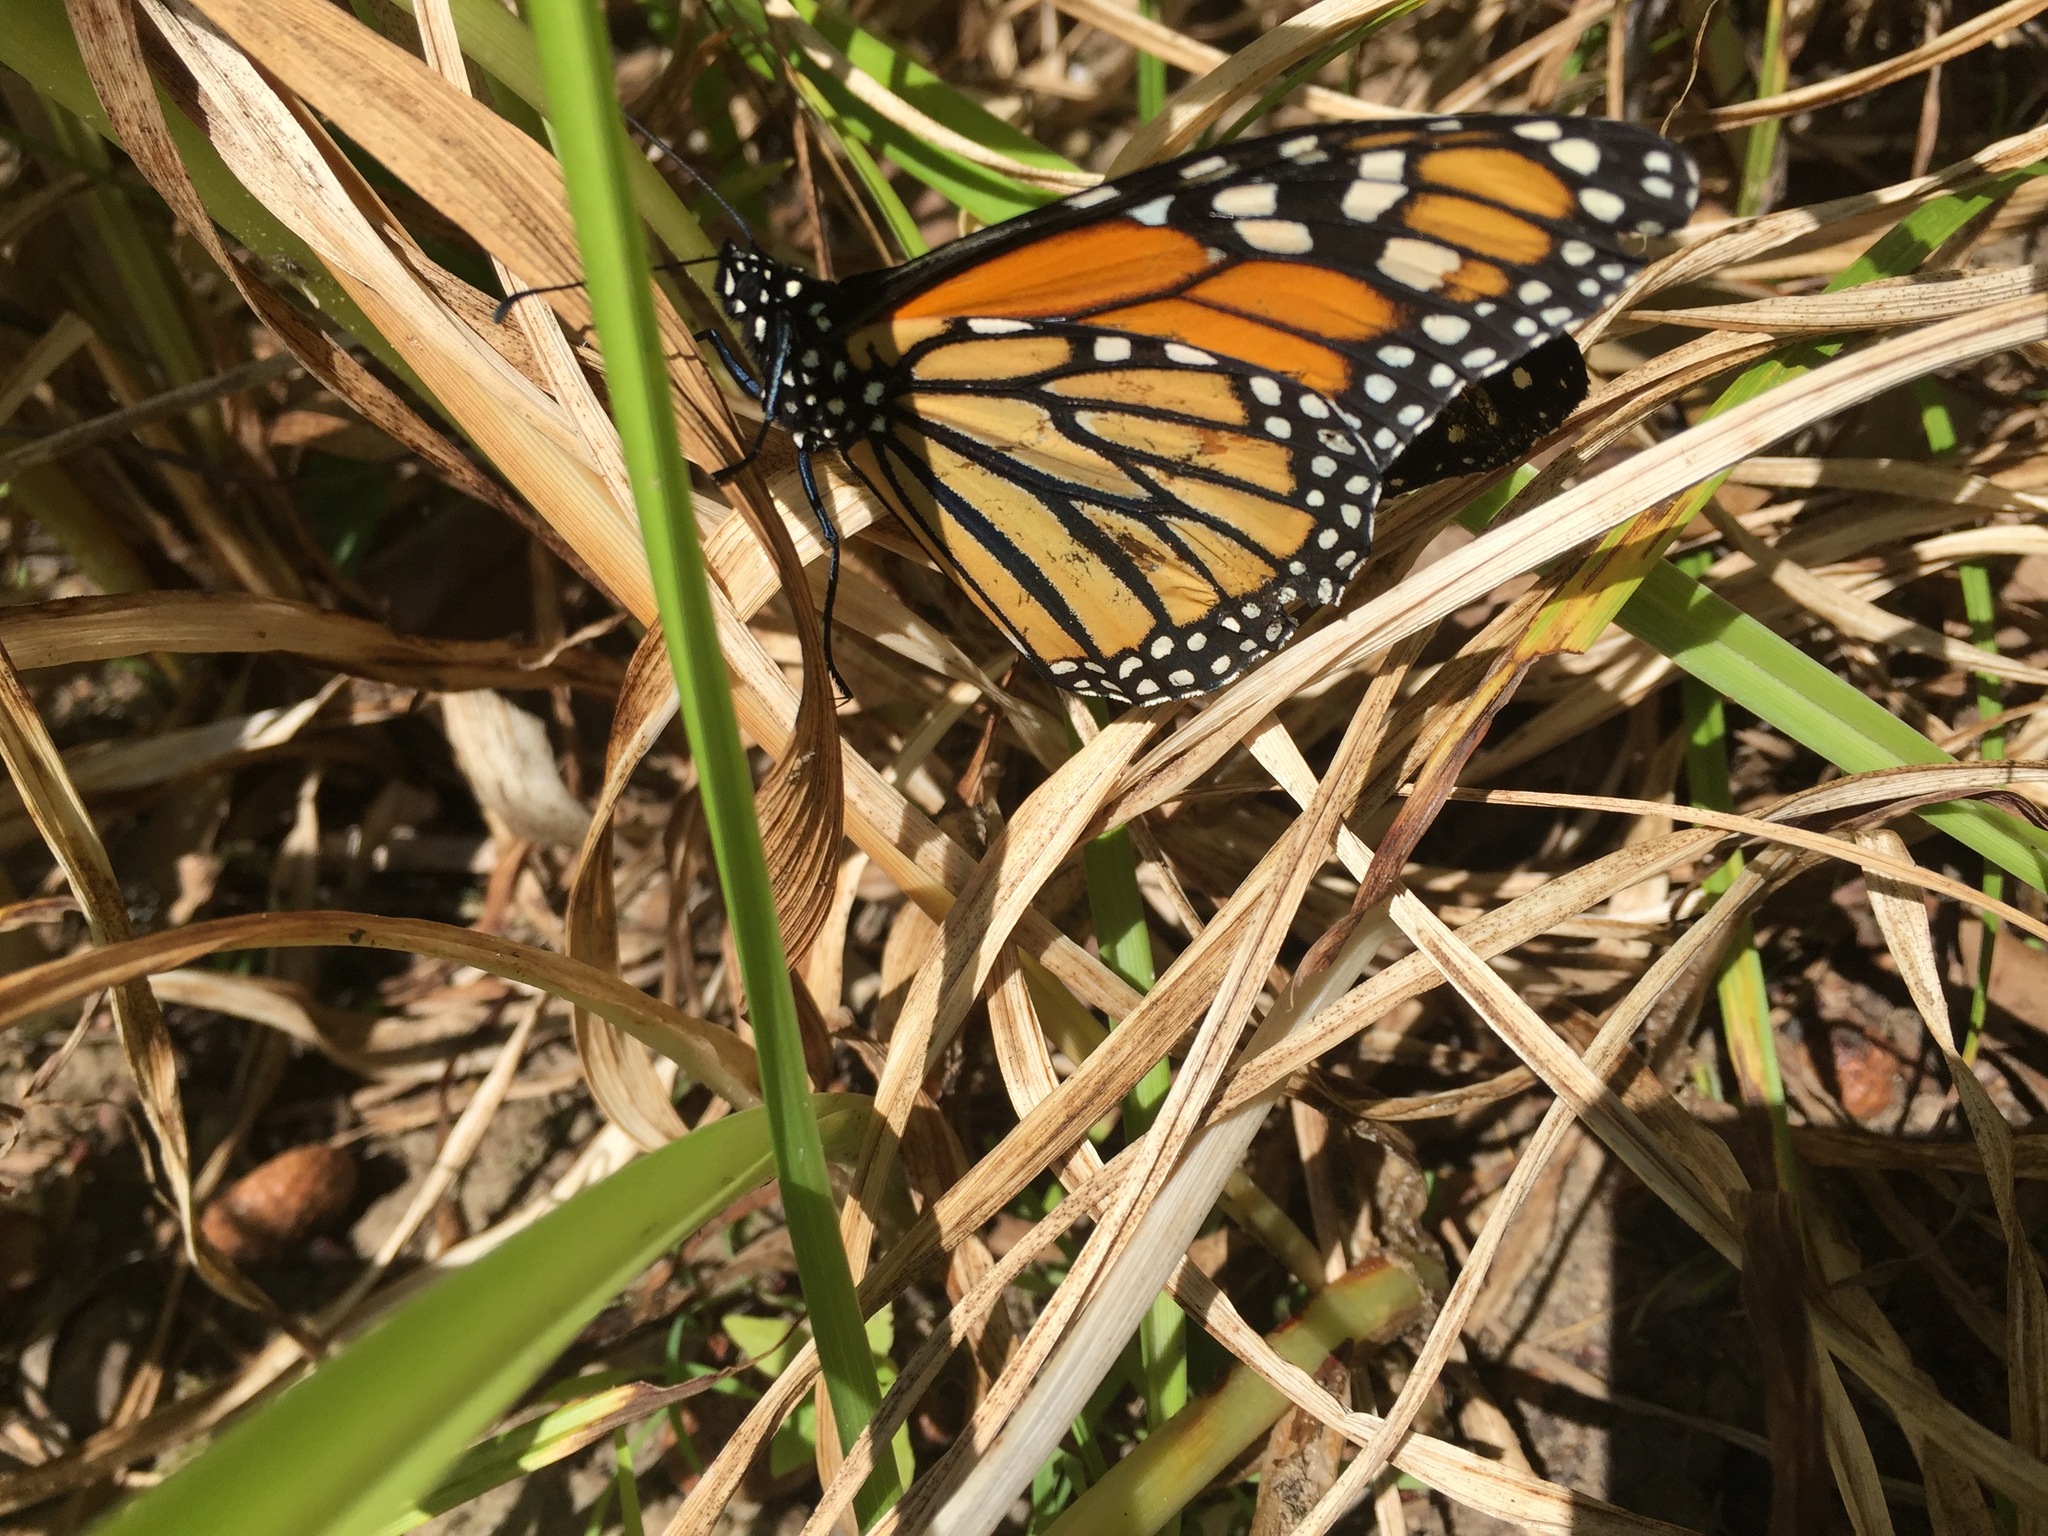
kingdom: Animalia
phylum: Arthropoda
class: Insecta
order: Lepidoptera
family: Nymphalidae
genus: Danaus
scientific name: Danaus plexippus
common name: Monarch
